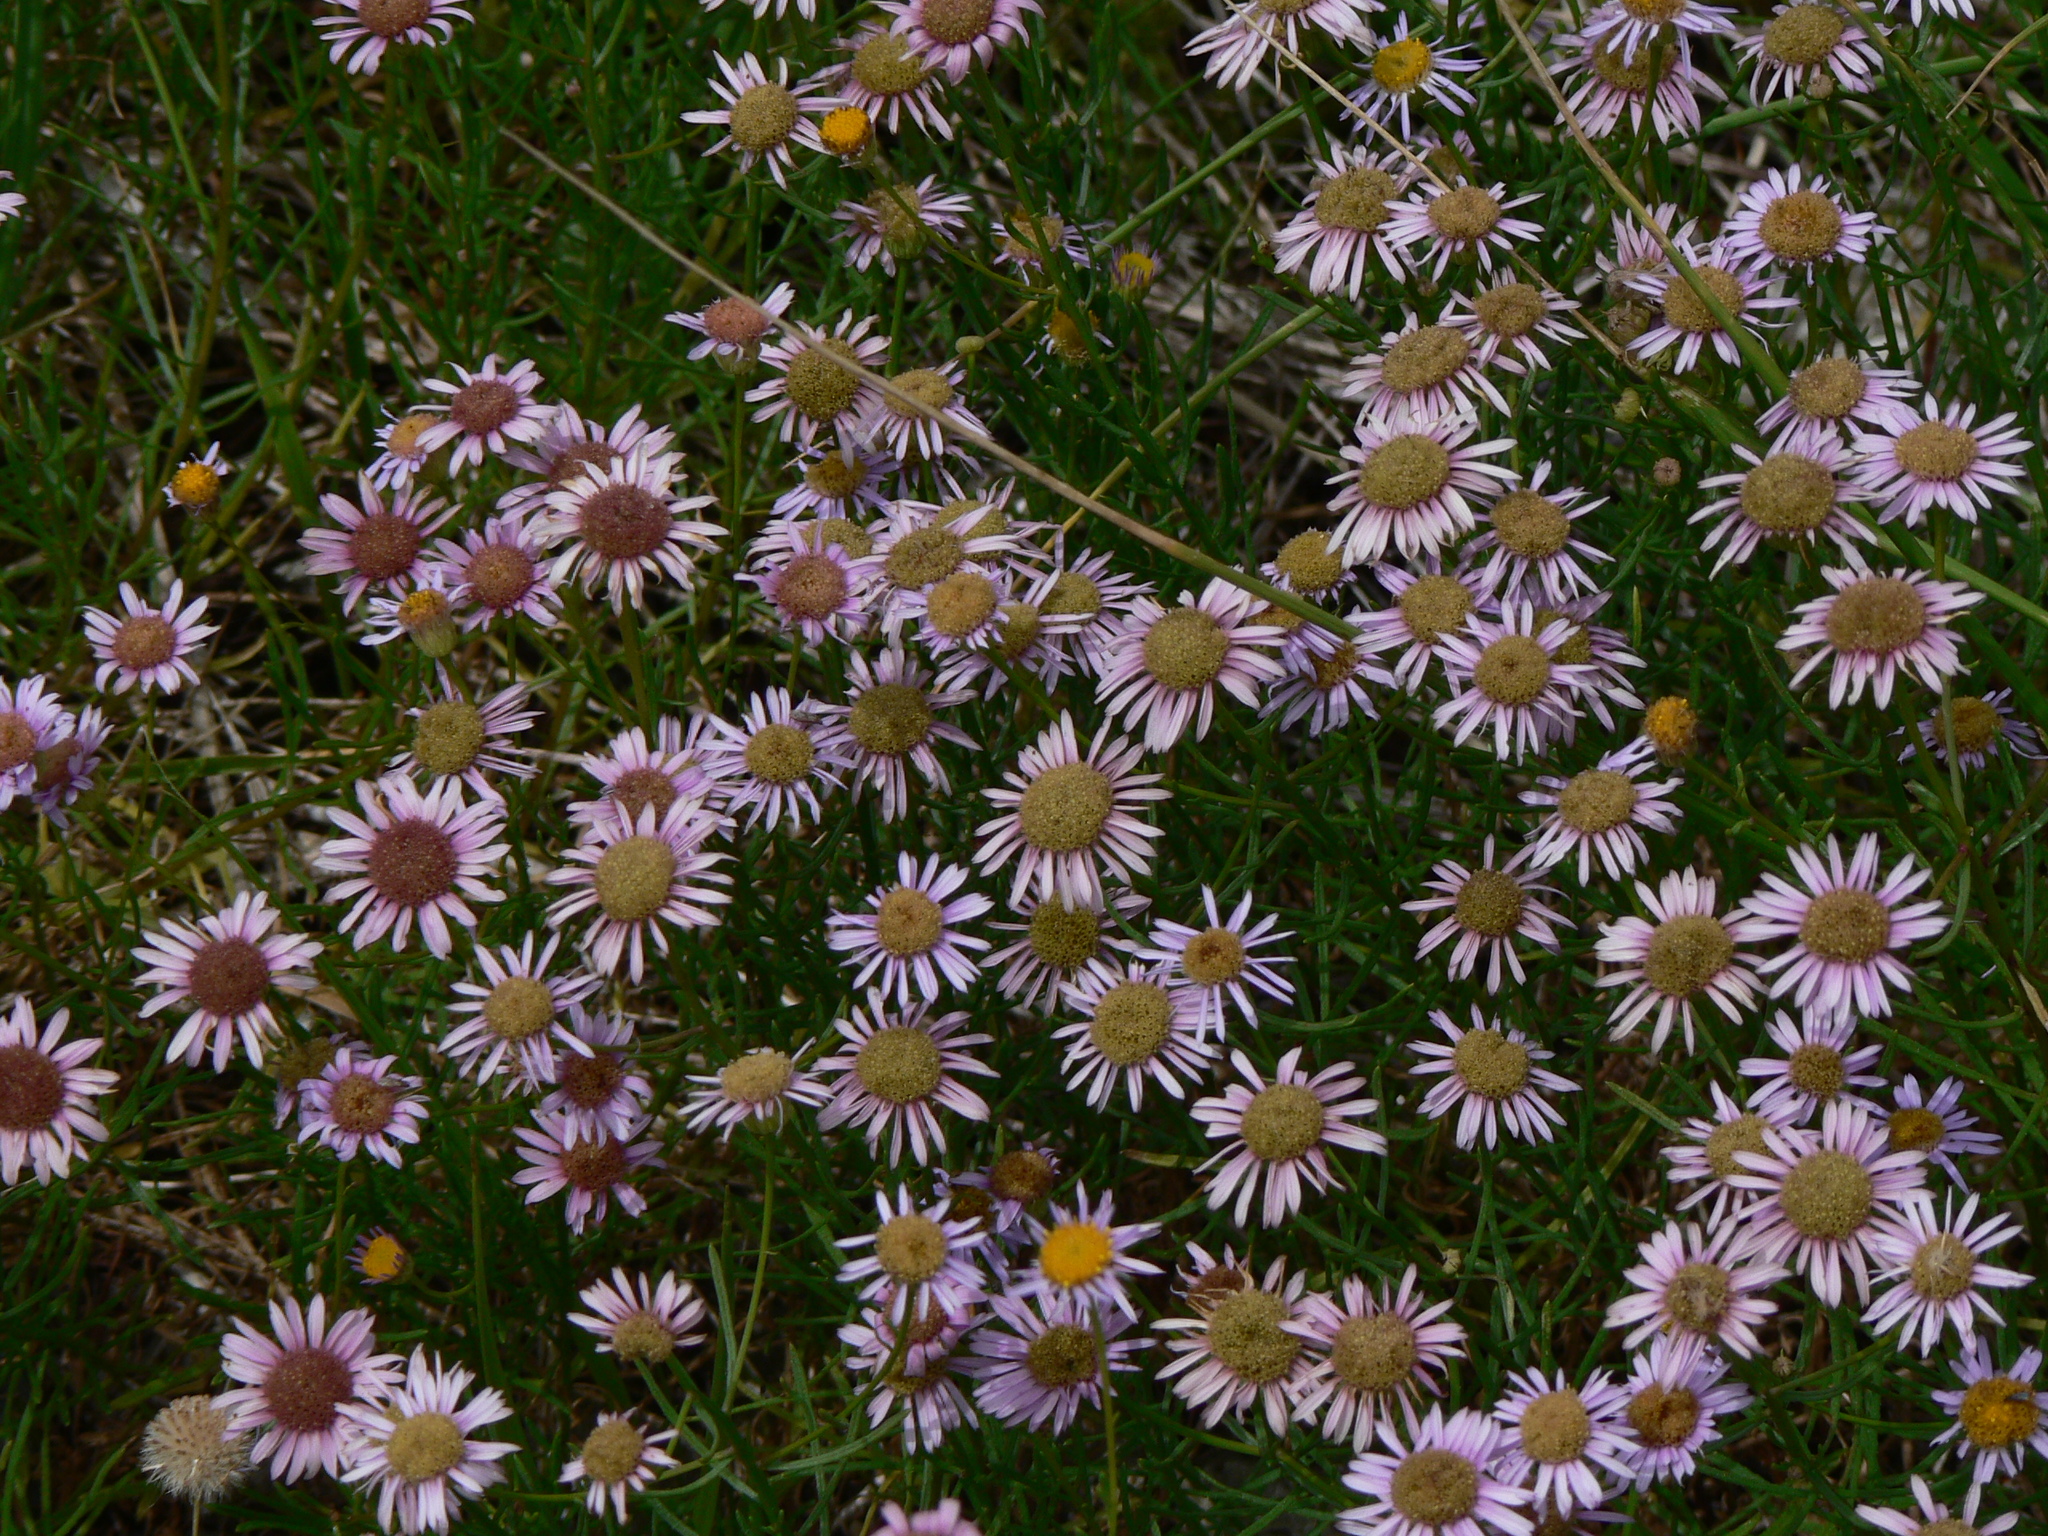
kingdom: Plantae
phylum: Tracheophyta
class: Magnoliopsida
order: Asterales
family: Asteraceae
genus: Erigeron
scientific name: Erigeron foliosus
